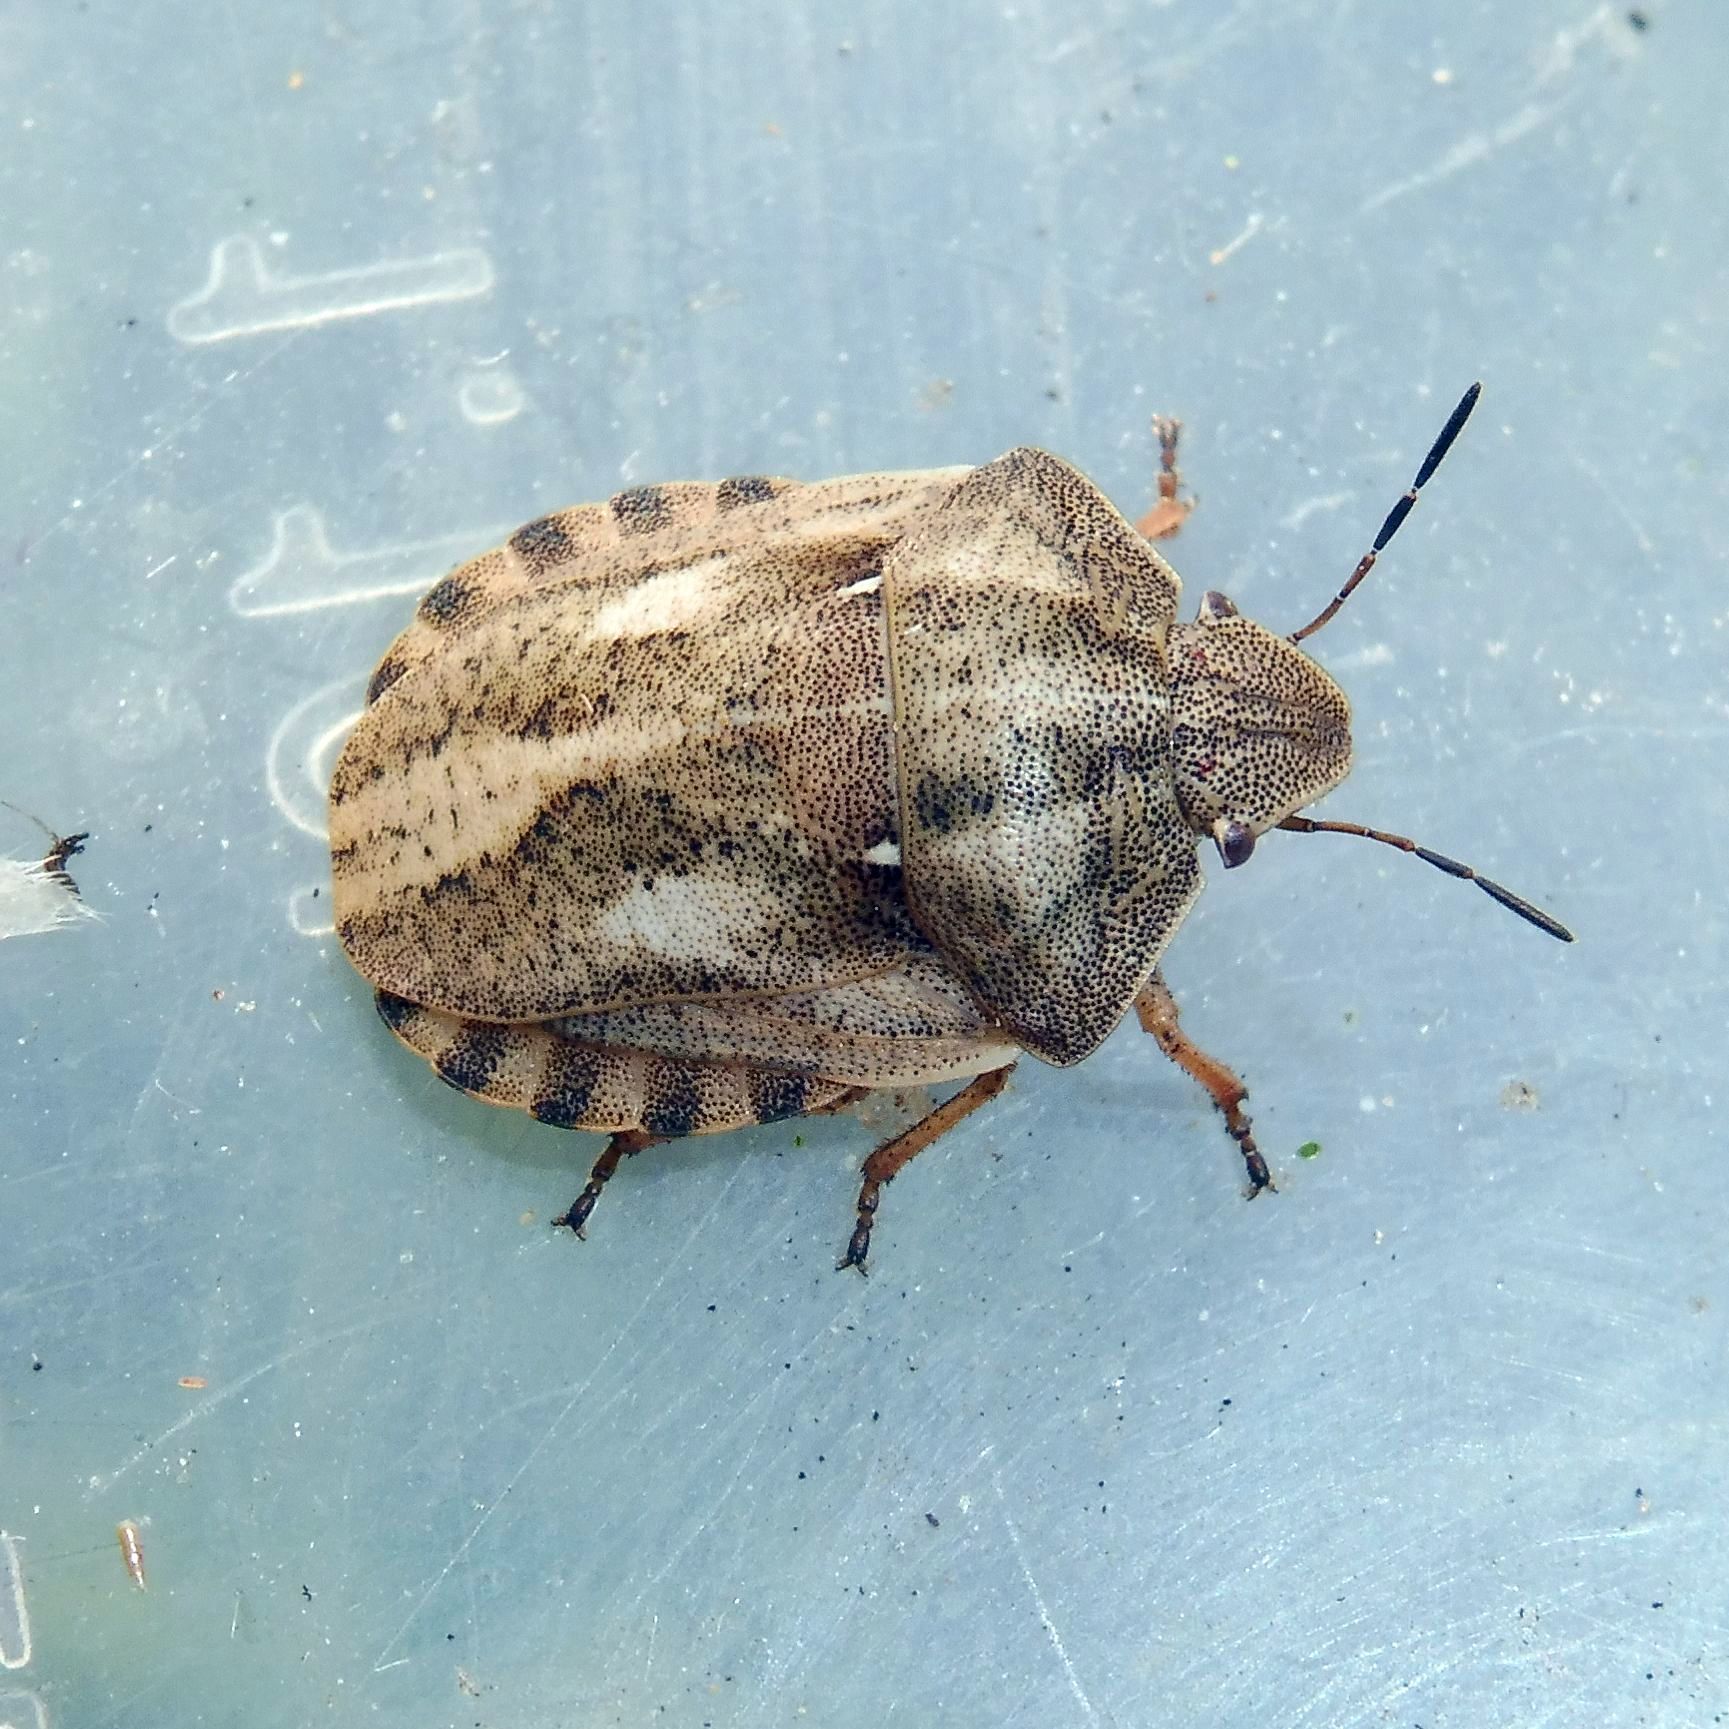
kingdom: Animalia
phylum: Arthropoda
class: Insecta
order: Hemiptera
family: Scutelleridae
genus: Eurygaster
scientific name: Eurygaster testudinaria
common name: Tortoise bug
